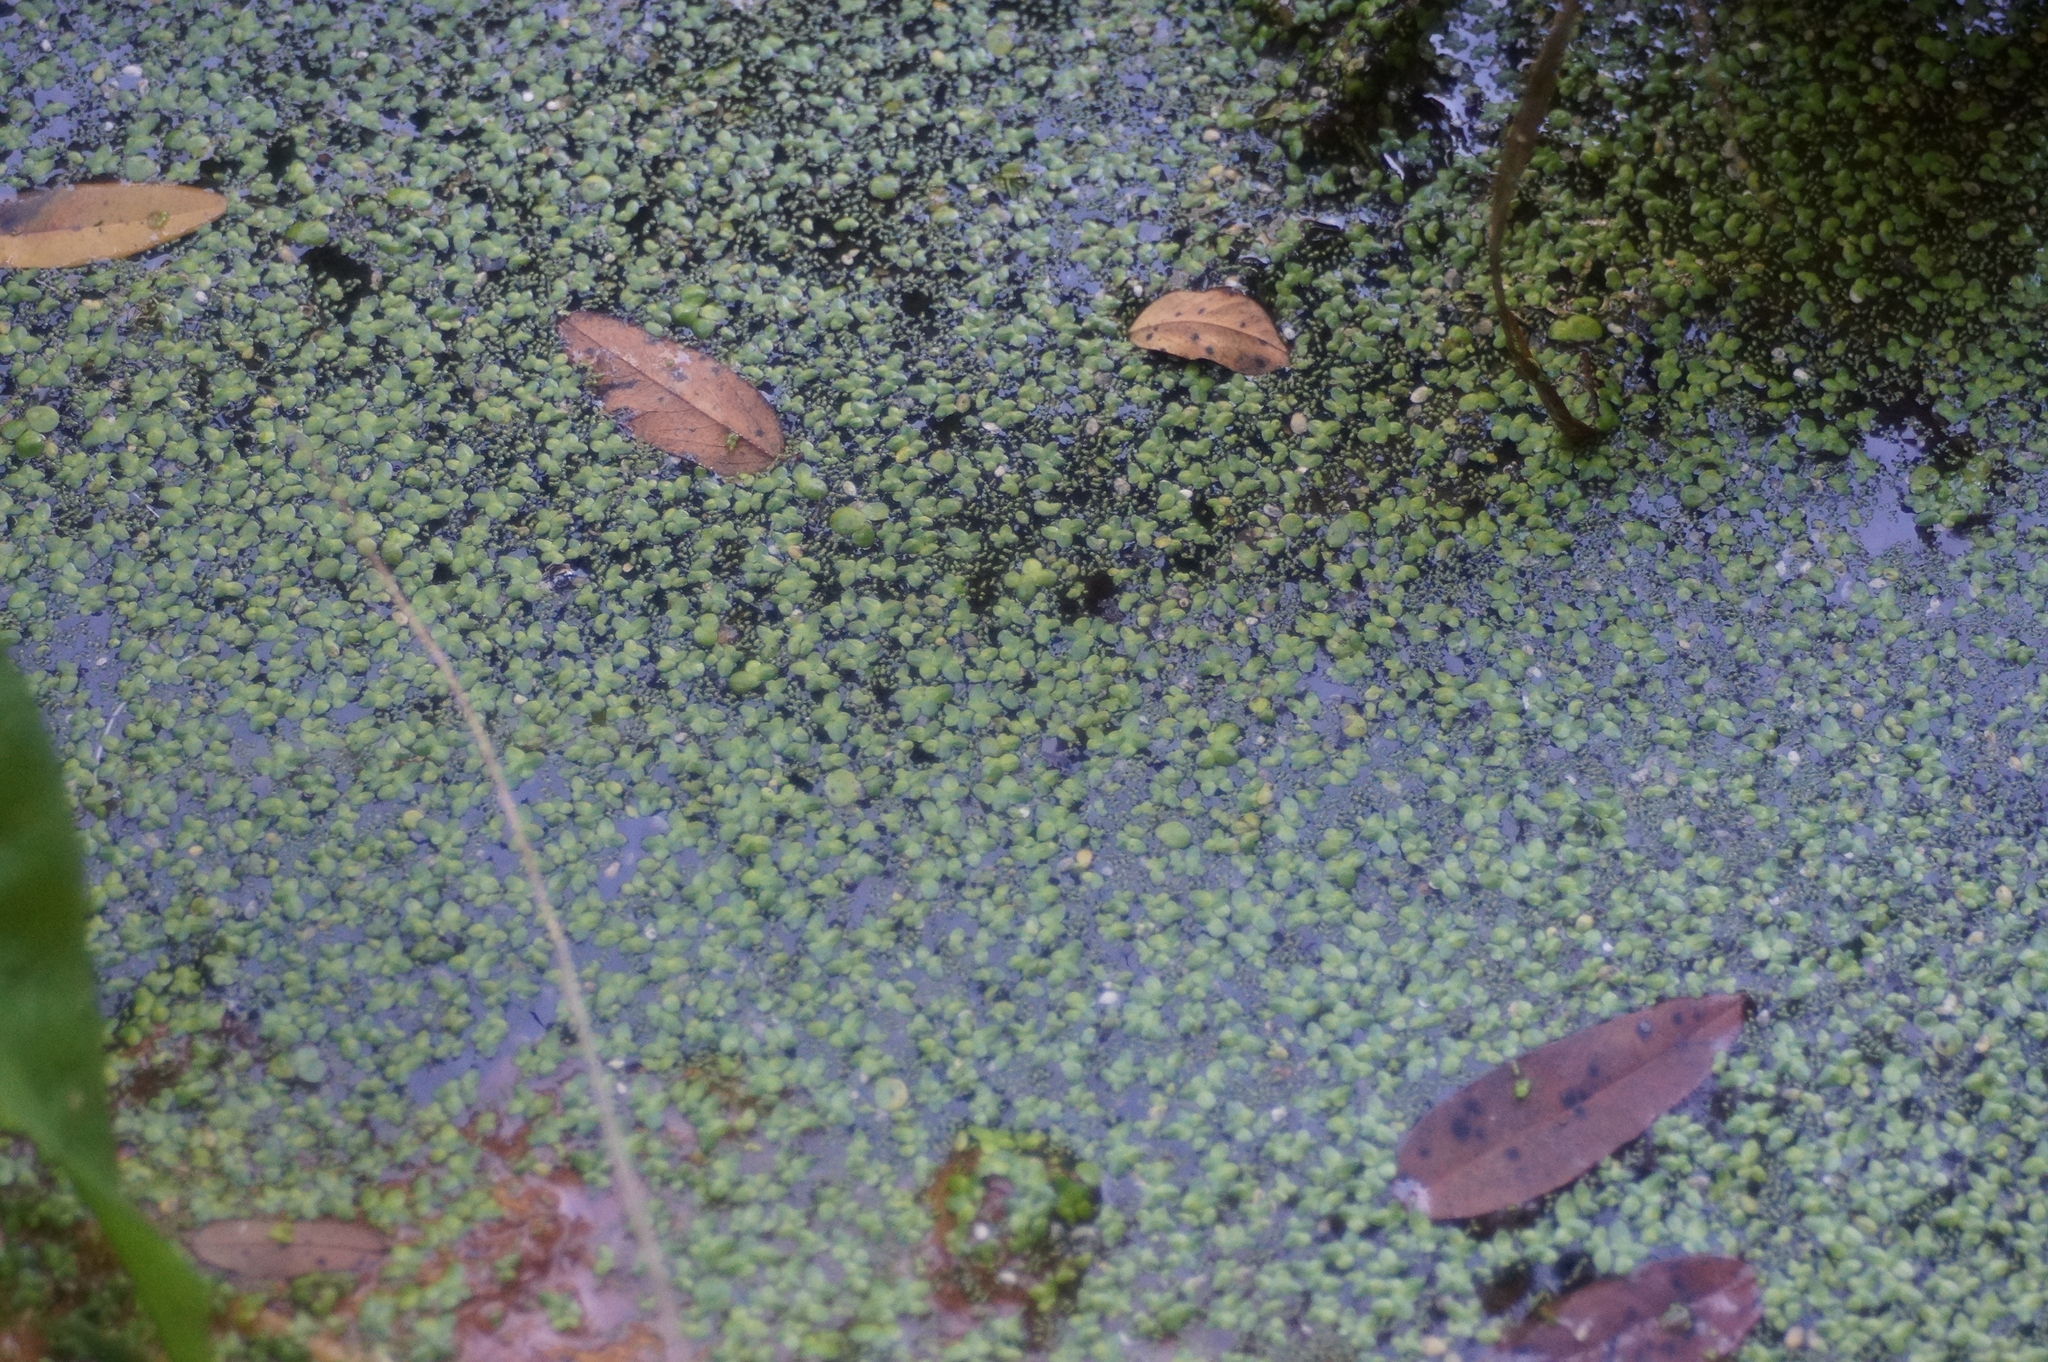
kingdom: Plantae
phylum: Tracheophyta
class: Liliopsida
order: Alismatales
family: Araceae
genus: Lemna
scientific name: Lemna minor
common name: Common duckweed
